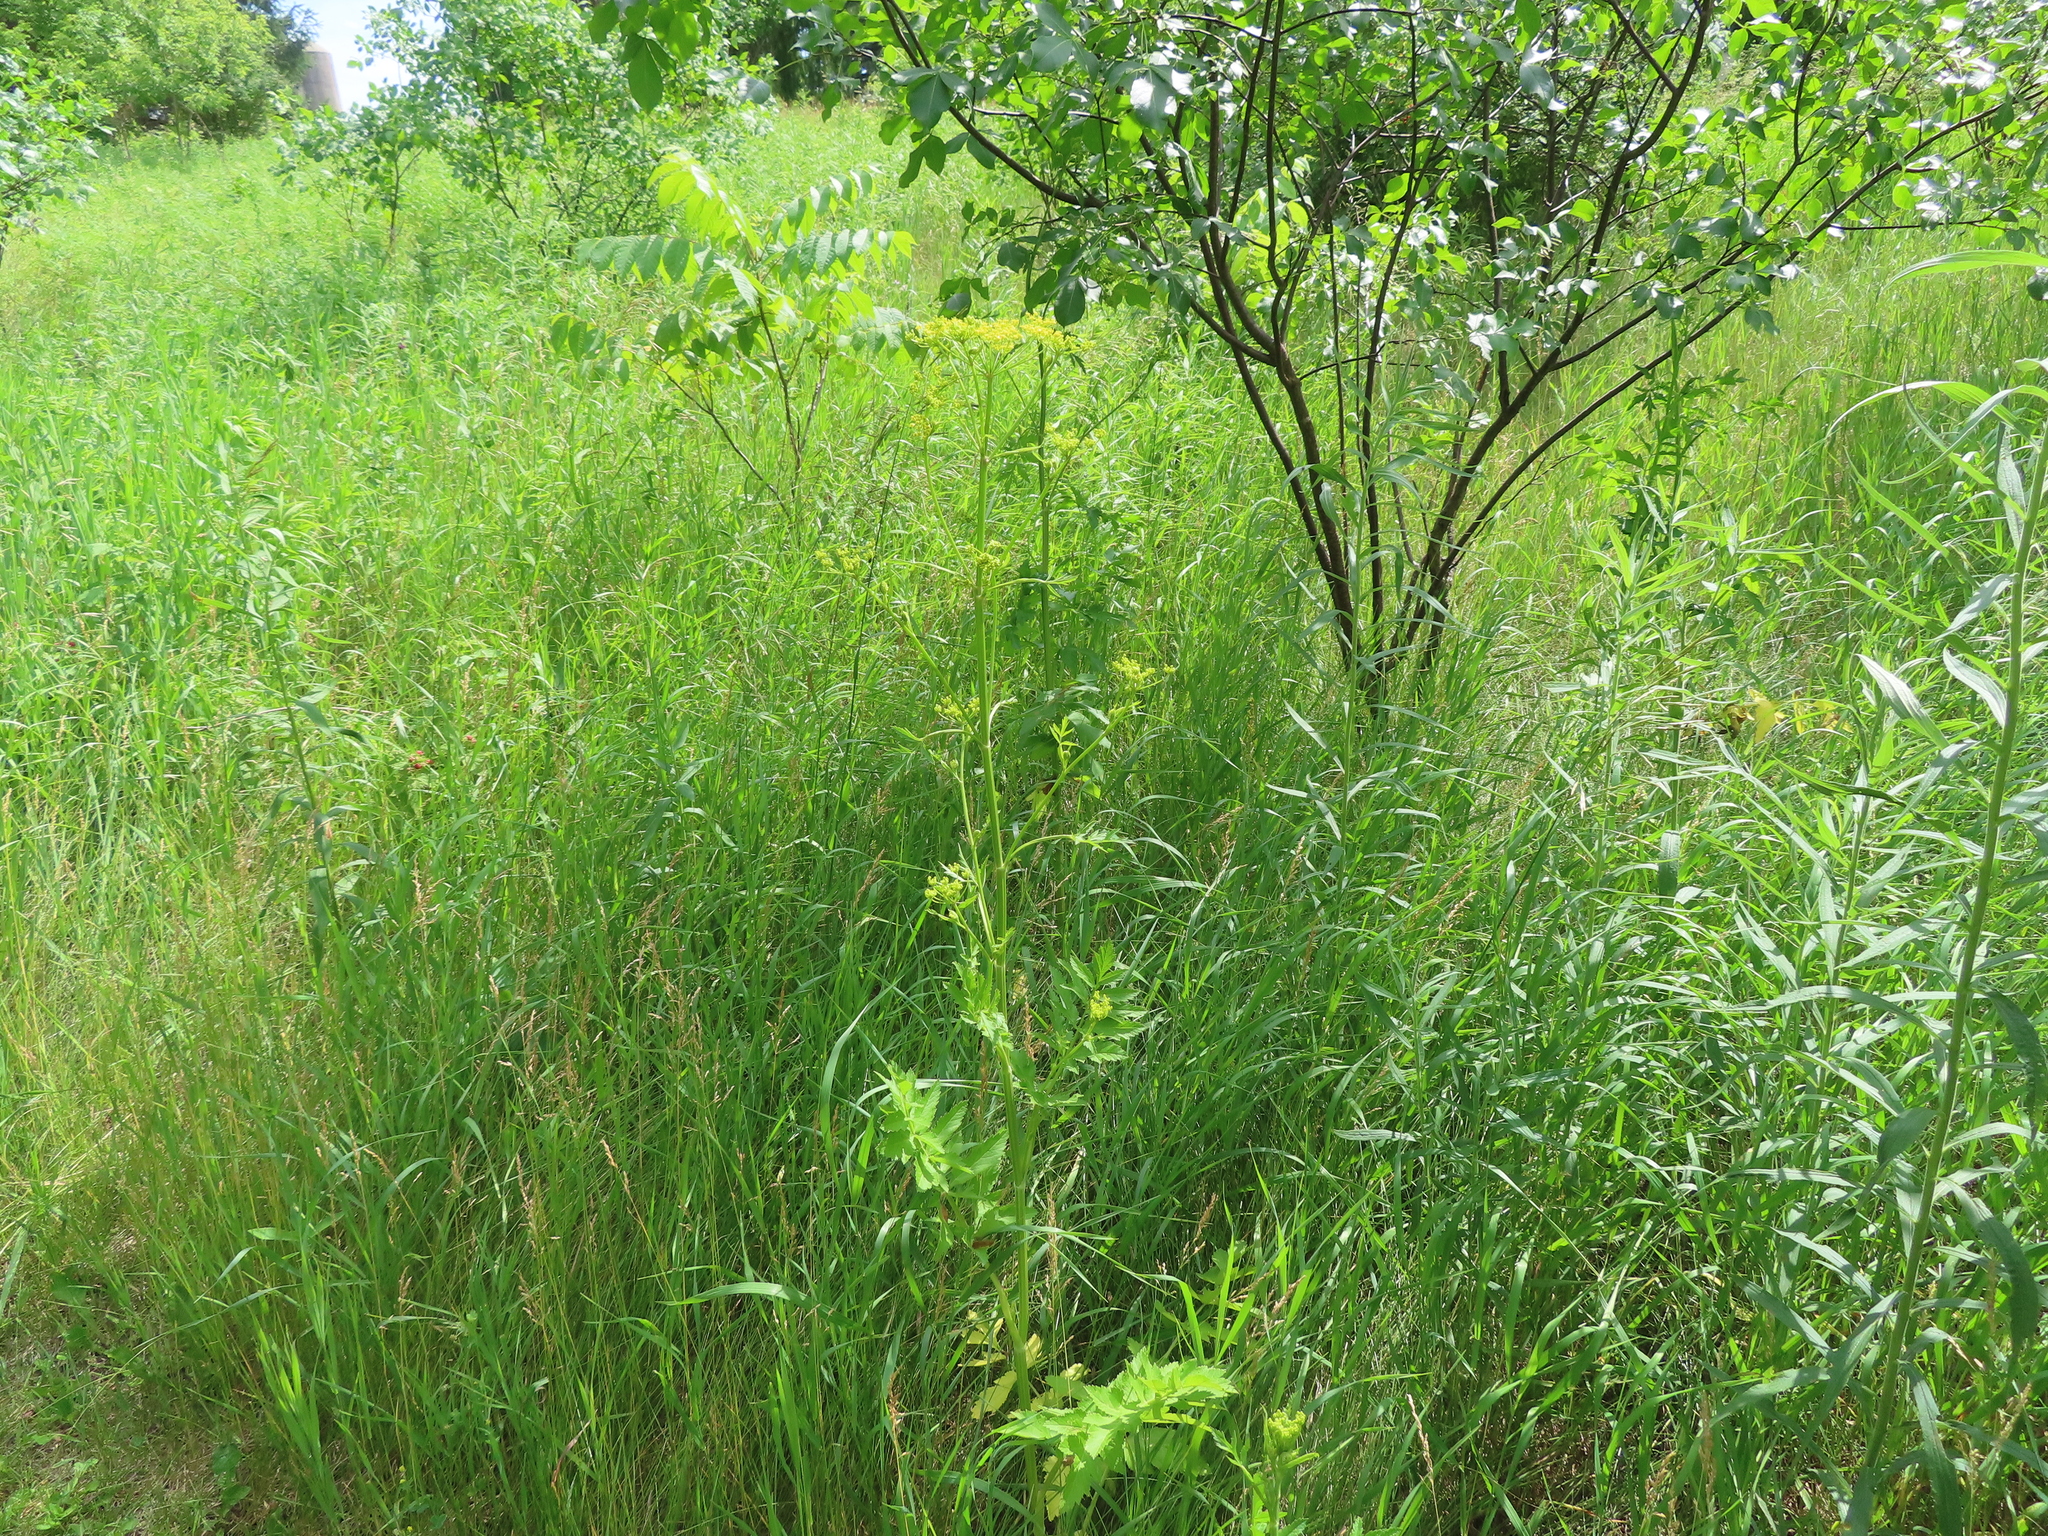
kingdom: Plantae
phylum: Tracheophyta
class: Magnoliopsida
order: Apiales
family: Apiaceae
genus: Pastinaca
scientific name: Pastinaca sativa
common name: Wild parsnip
